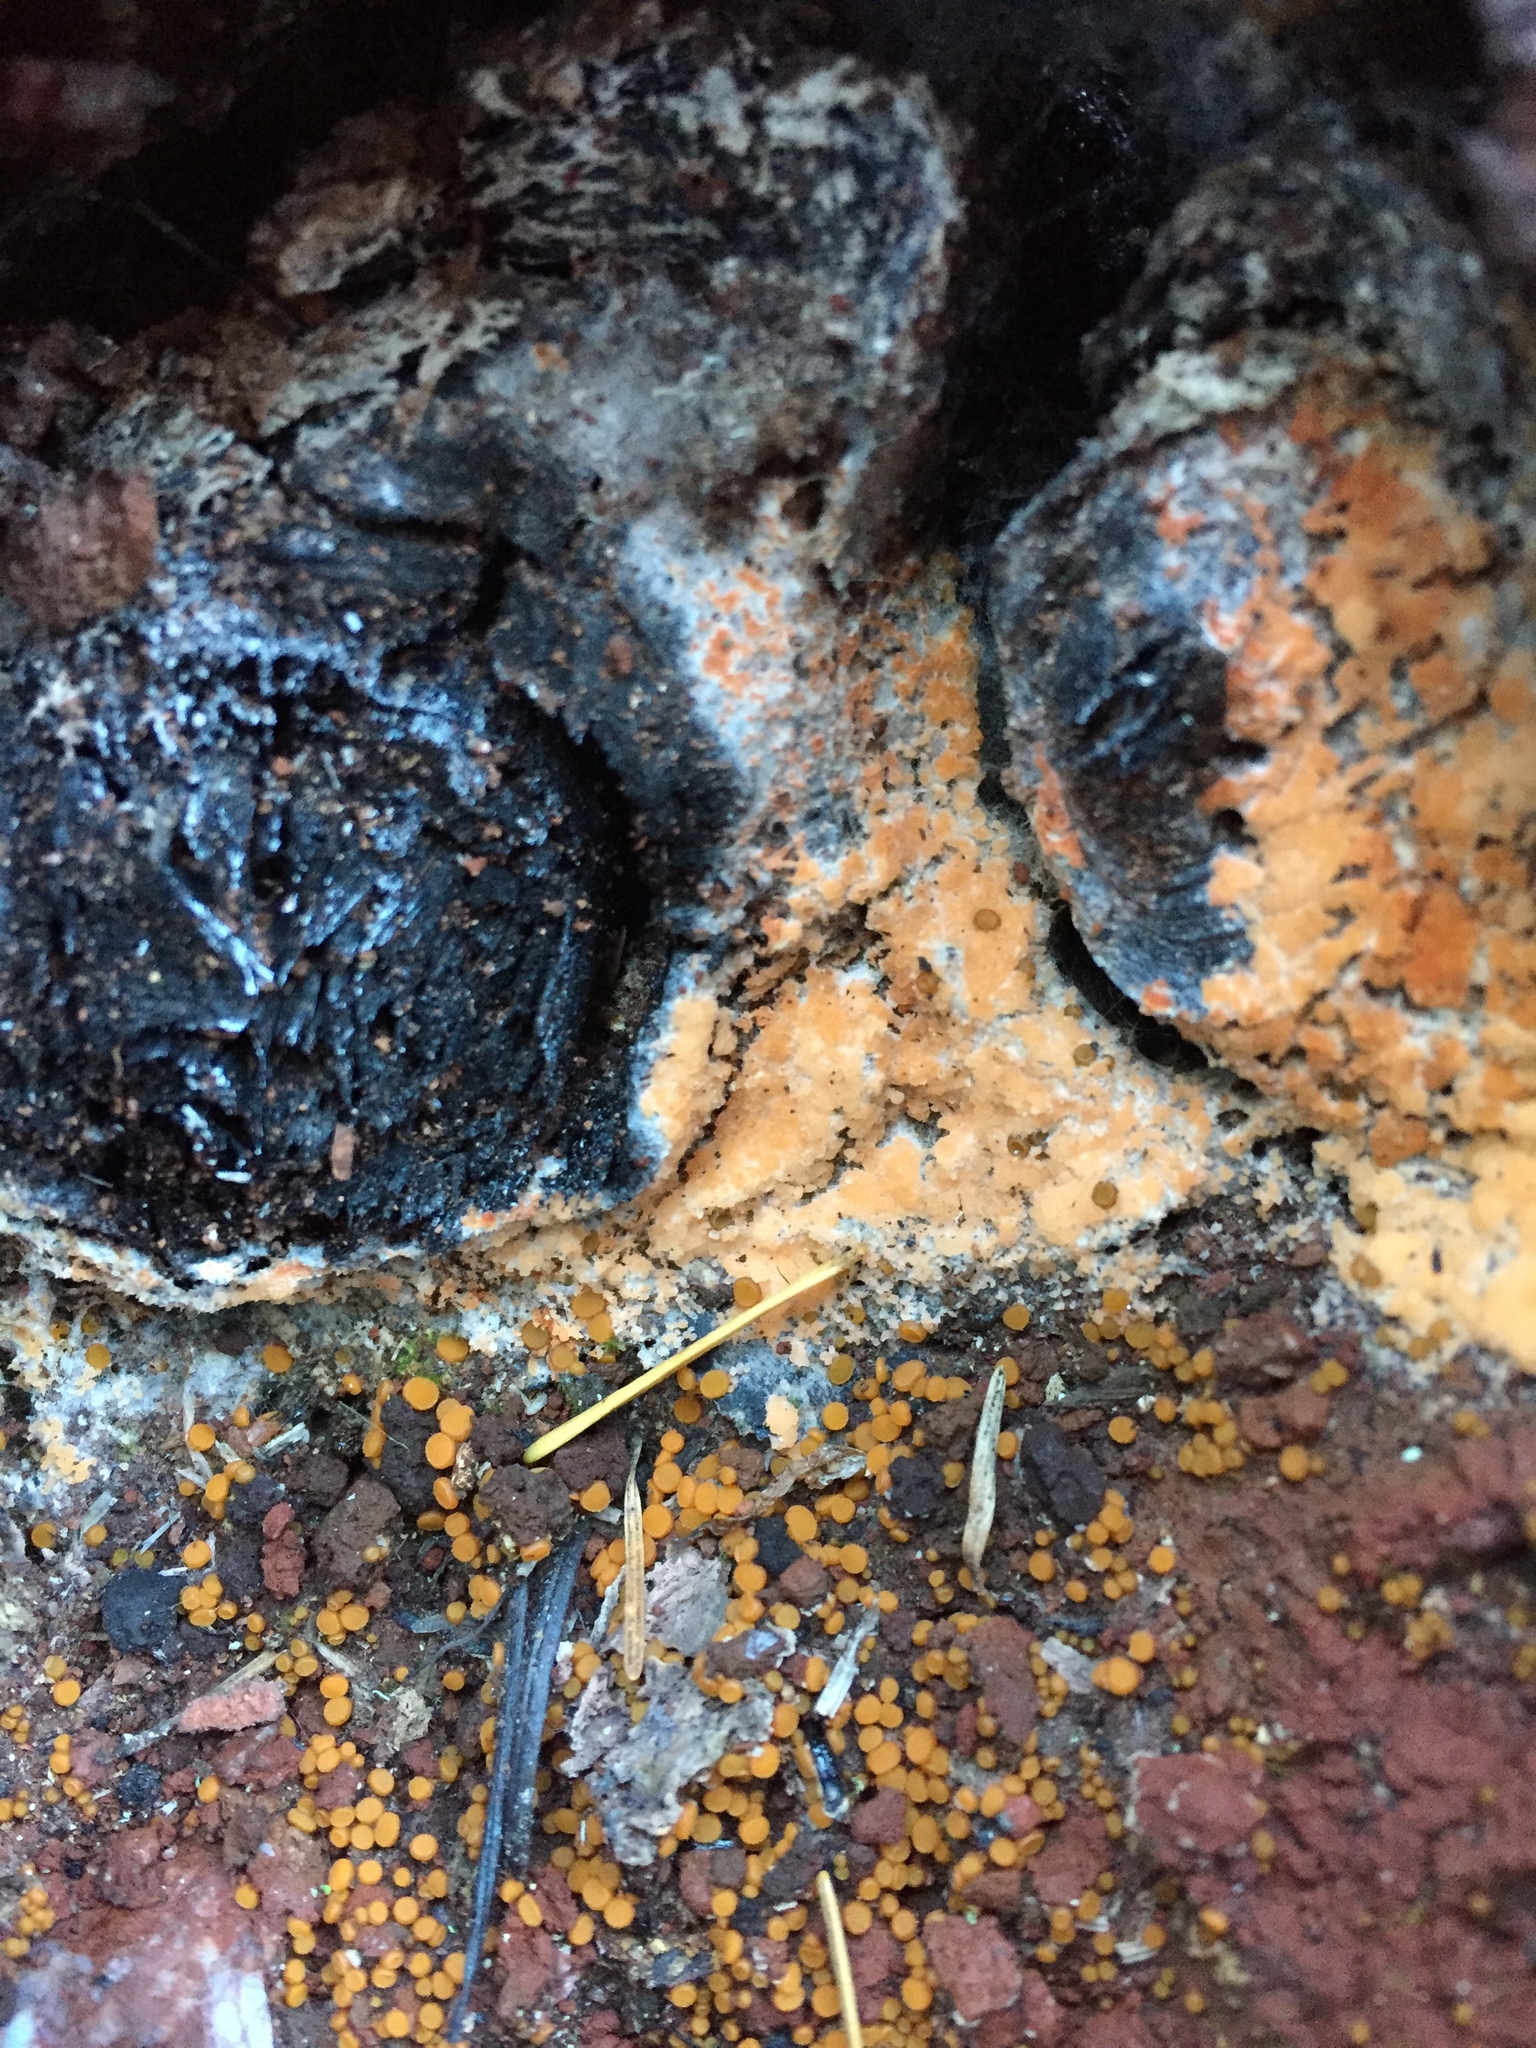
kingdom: Fungi
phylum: Ascomycota
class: Pezizomycetes
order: Pezizales
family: Pyronemataceae
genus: Pyronema
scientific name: Pyronema omphalodes
